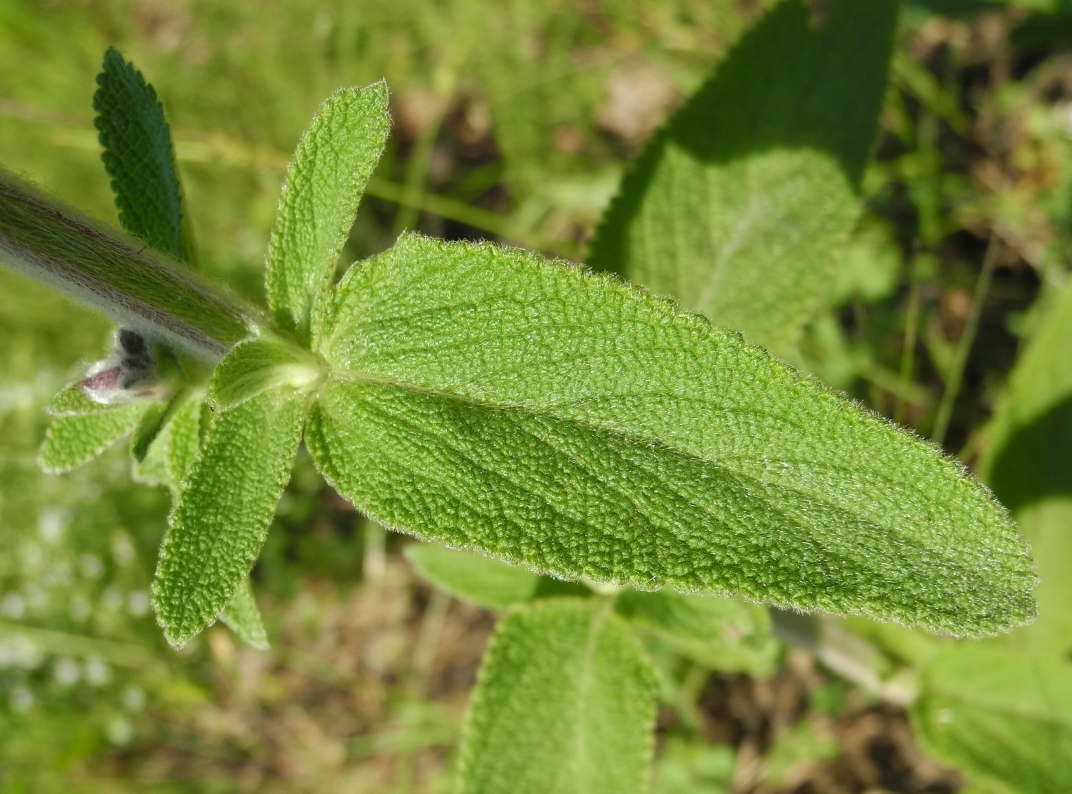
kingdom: Plantae
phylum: Tracheophyta
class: Magnoliopsida
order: Lamiales
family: Lamiaceae
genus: Stachys
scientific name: Stachys germanica
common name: Downy woundwort
